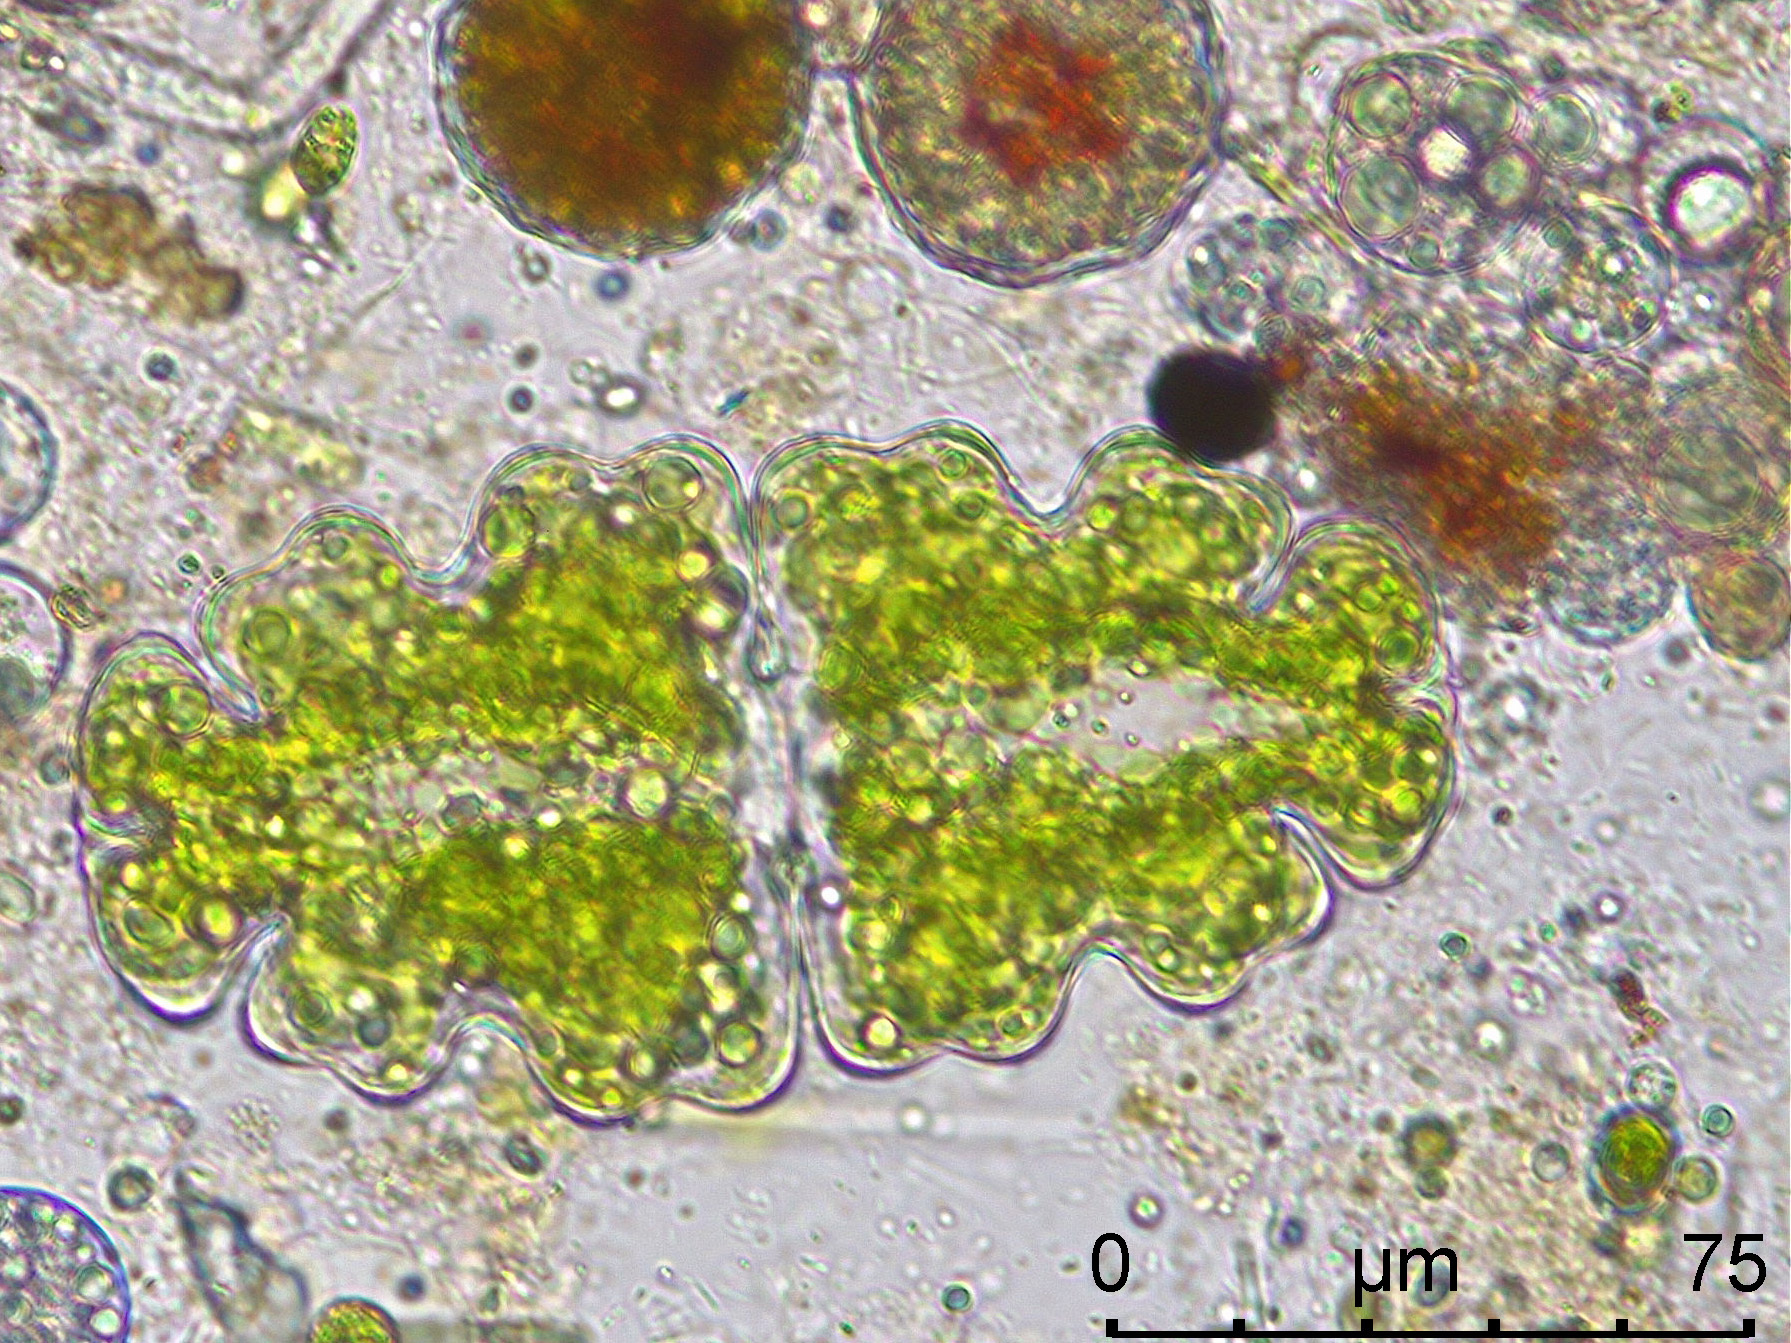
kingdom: Plantae
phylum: Charophyta
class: Conjugatophyceae
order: Desmidiales
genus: Euastrum
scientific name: Euastrum oblongum
